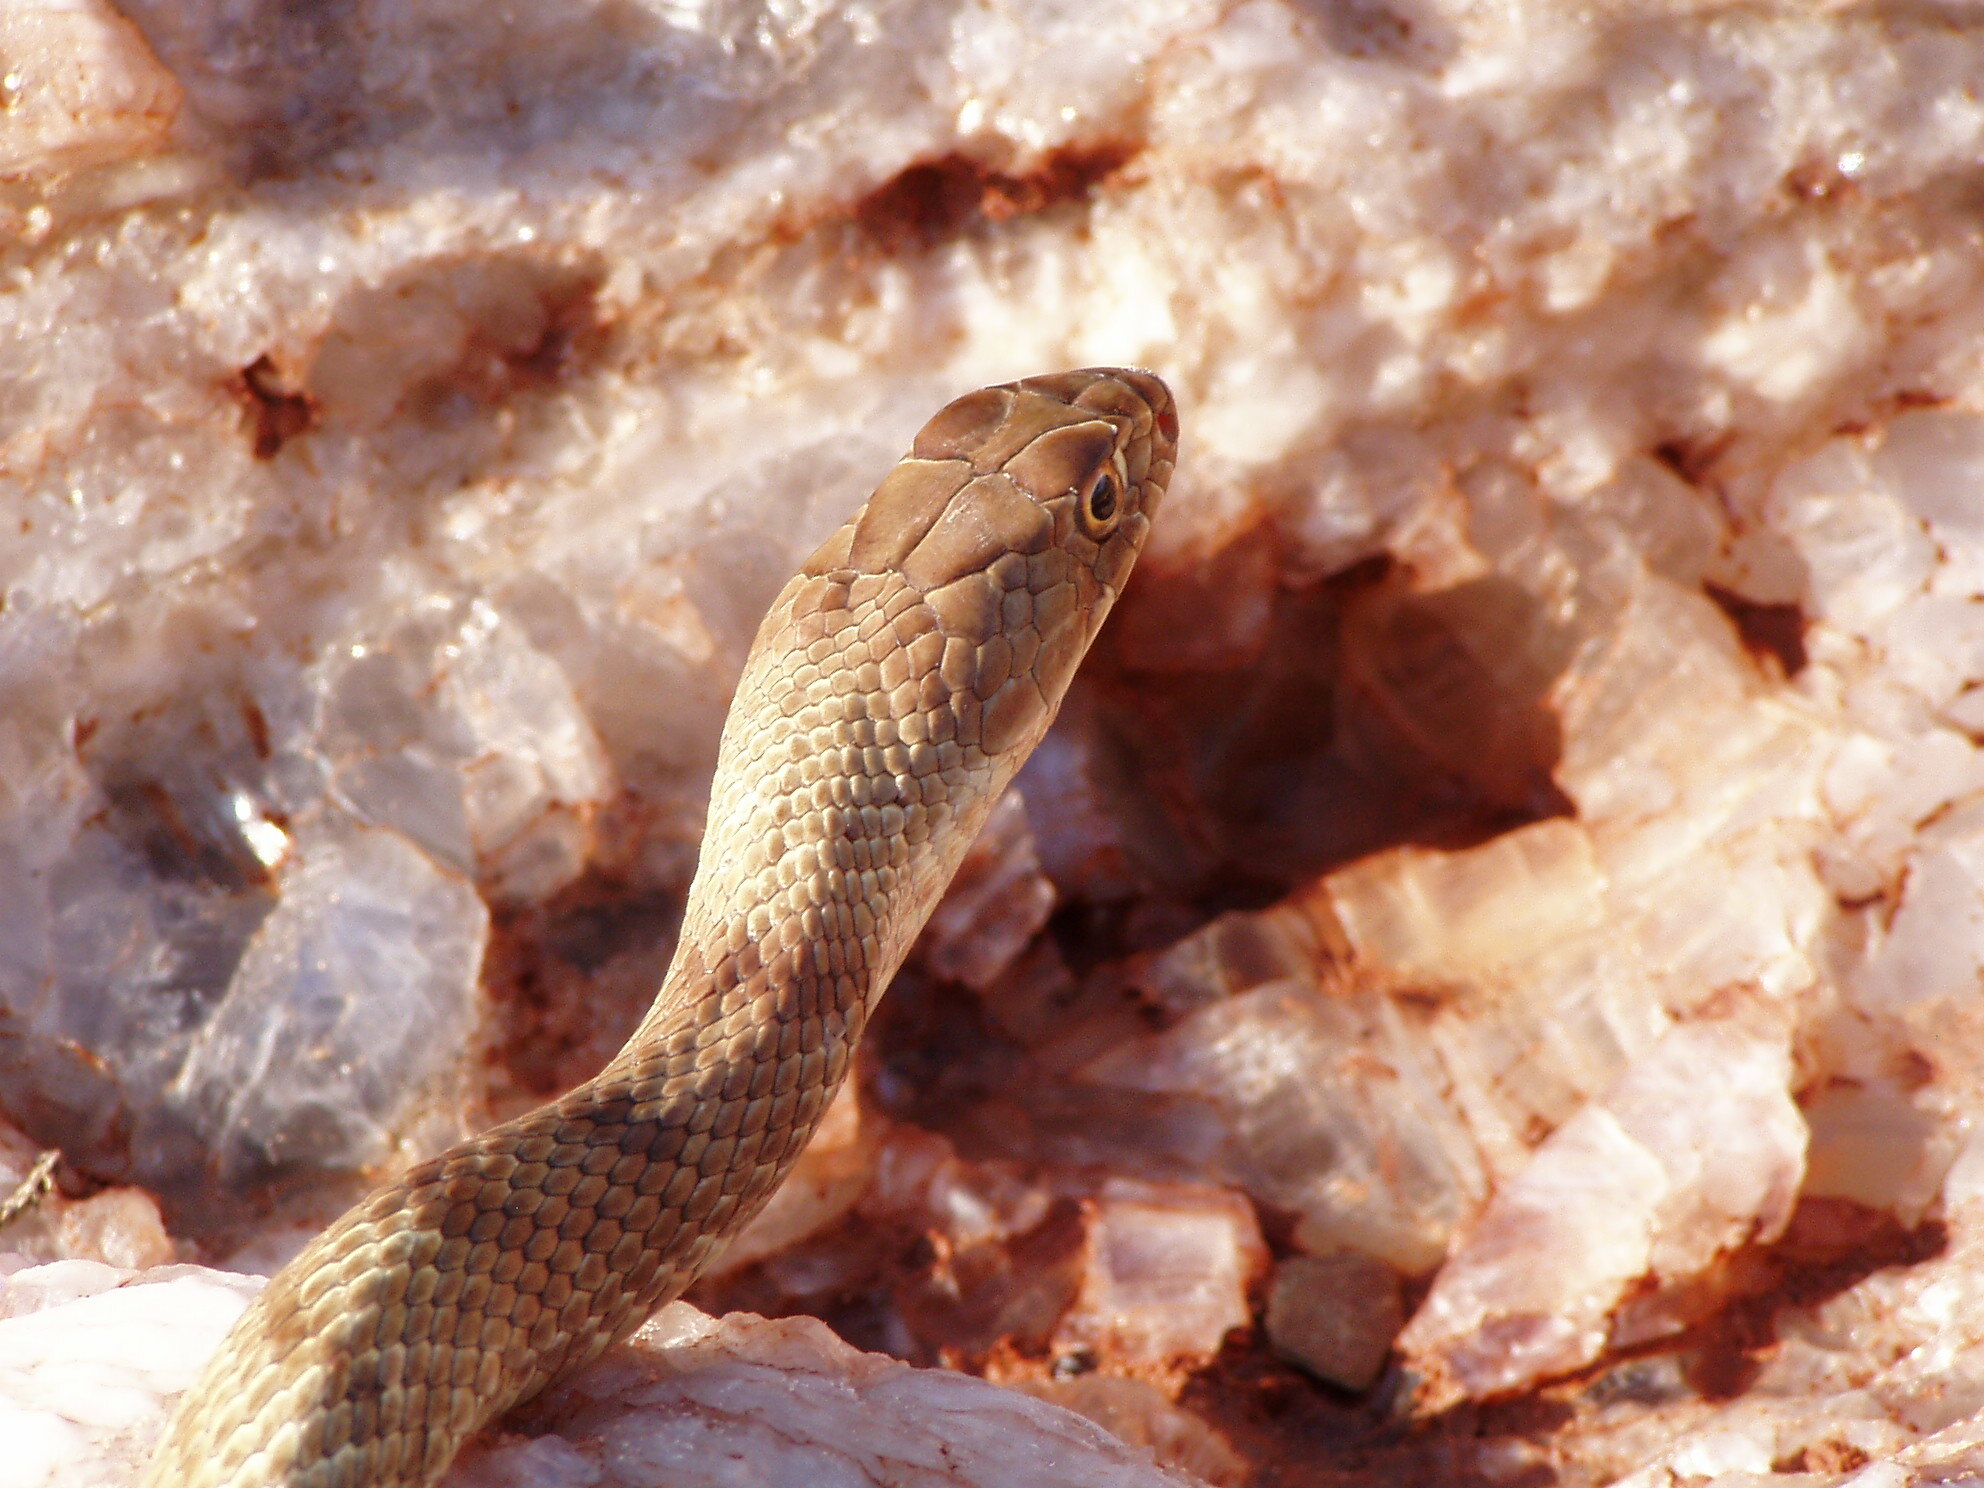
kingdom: Animalia
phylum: Chordata
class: Squamata
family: Colubridae
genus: Masticophis
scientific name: Masticophis flagellum
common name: Coachwhip
